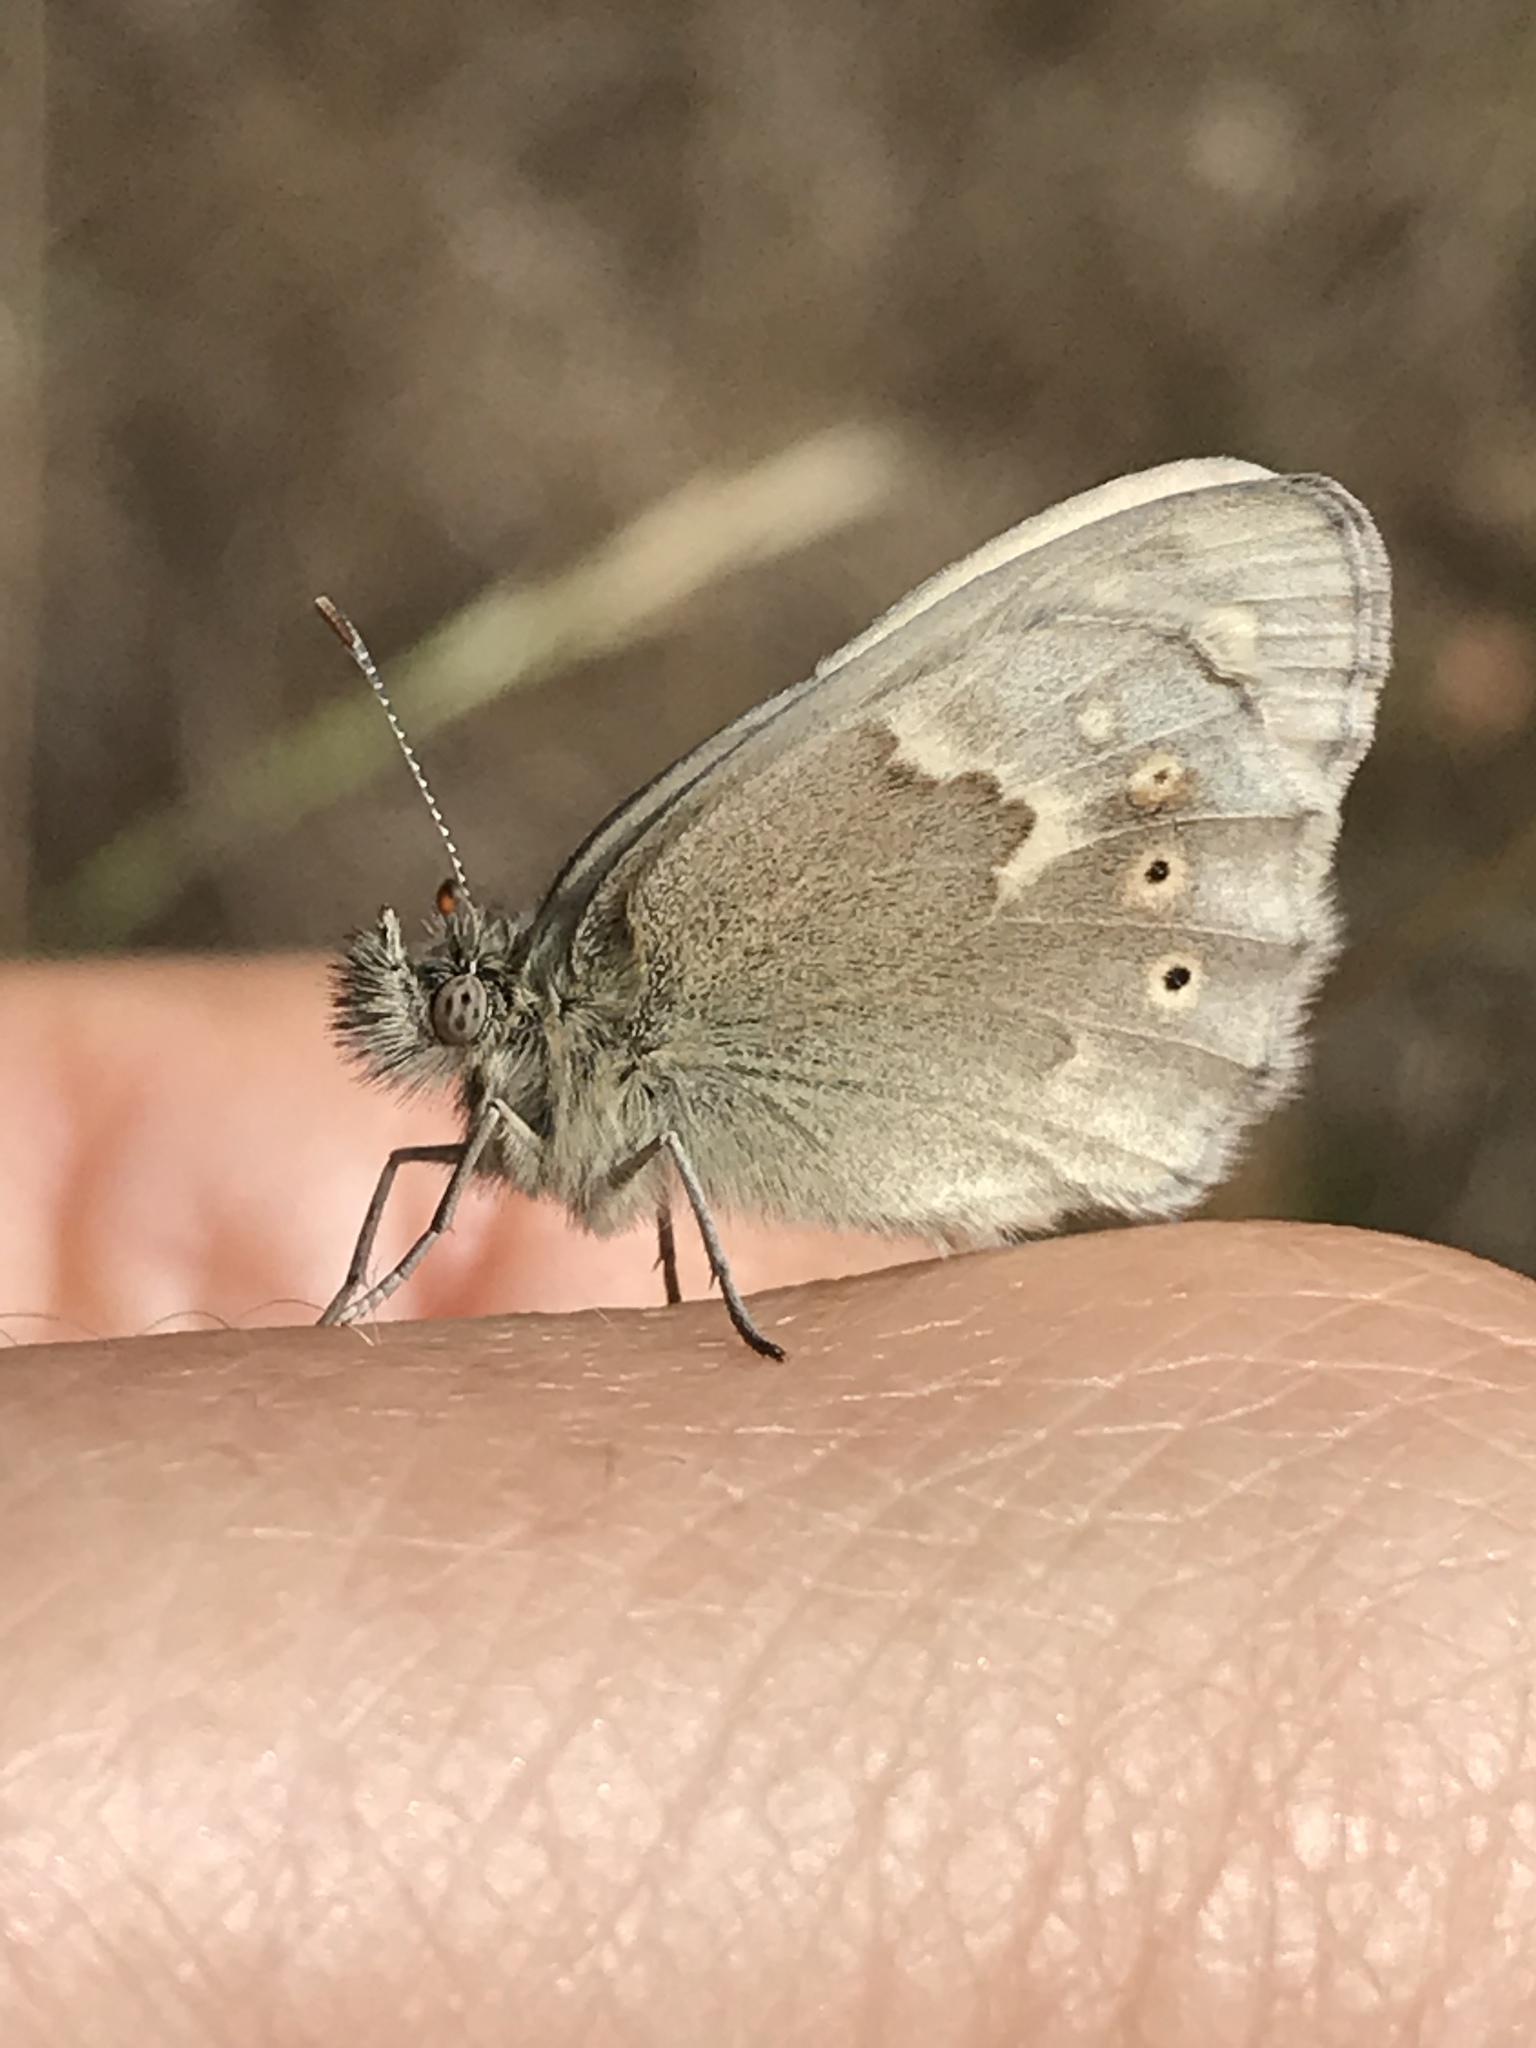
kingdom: Animalia
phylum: Arthropoda
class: Insecta
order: Lepidoptera
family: Nymphalidae
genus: Coenonympha
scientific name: Coenonympha california
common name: Common ringlet
